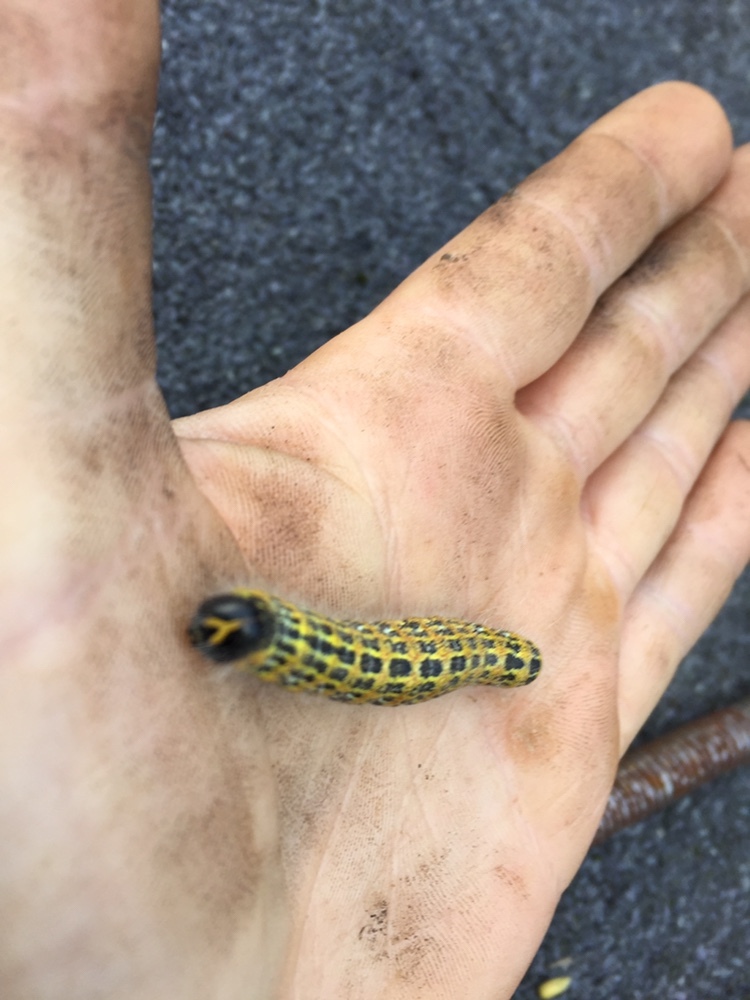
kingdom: Animalia
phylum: Arthropoda
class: Insecta
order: Lepidoptera
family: Notodontidae
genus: Phalera
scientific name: Phalera bucephala
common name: Buff-tip
